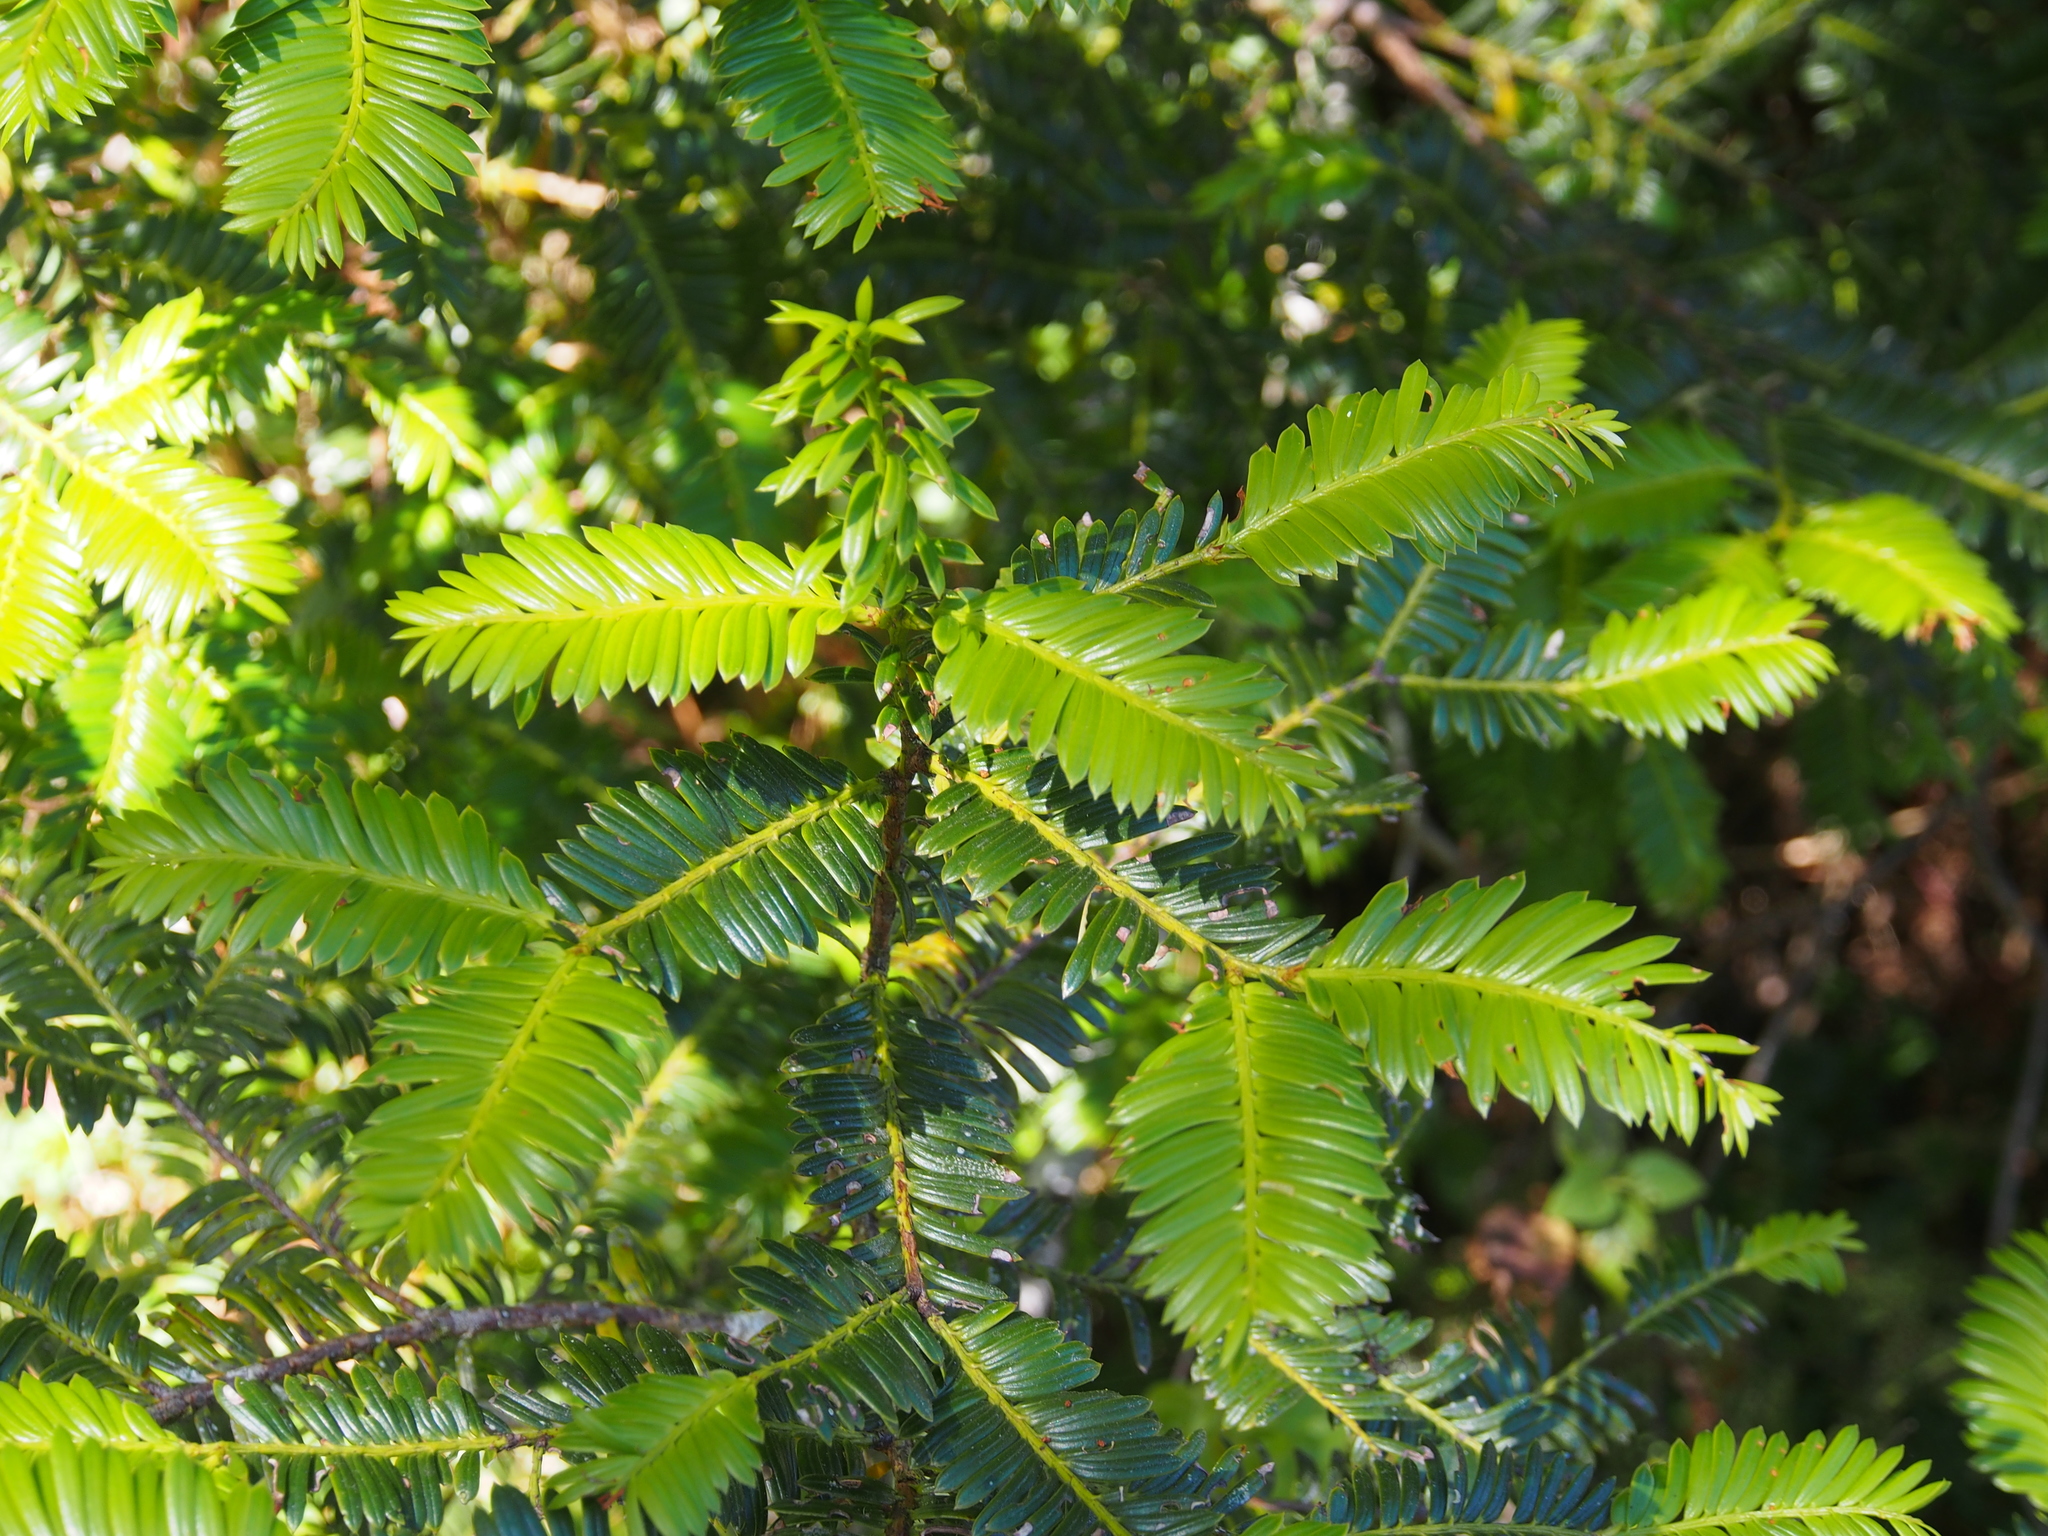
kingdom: Plantae
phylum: Tracheophyta
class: Pinopsida
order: Pinales
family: Podocarpaceae
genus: Prumnopitys
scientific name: Prumnopitys standleyi
